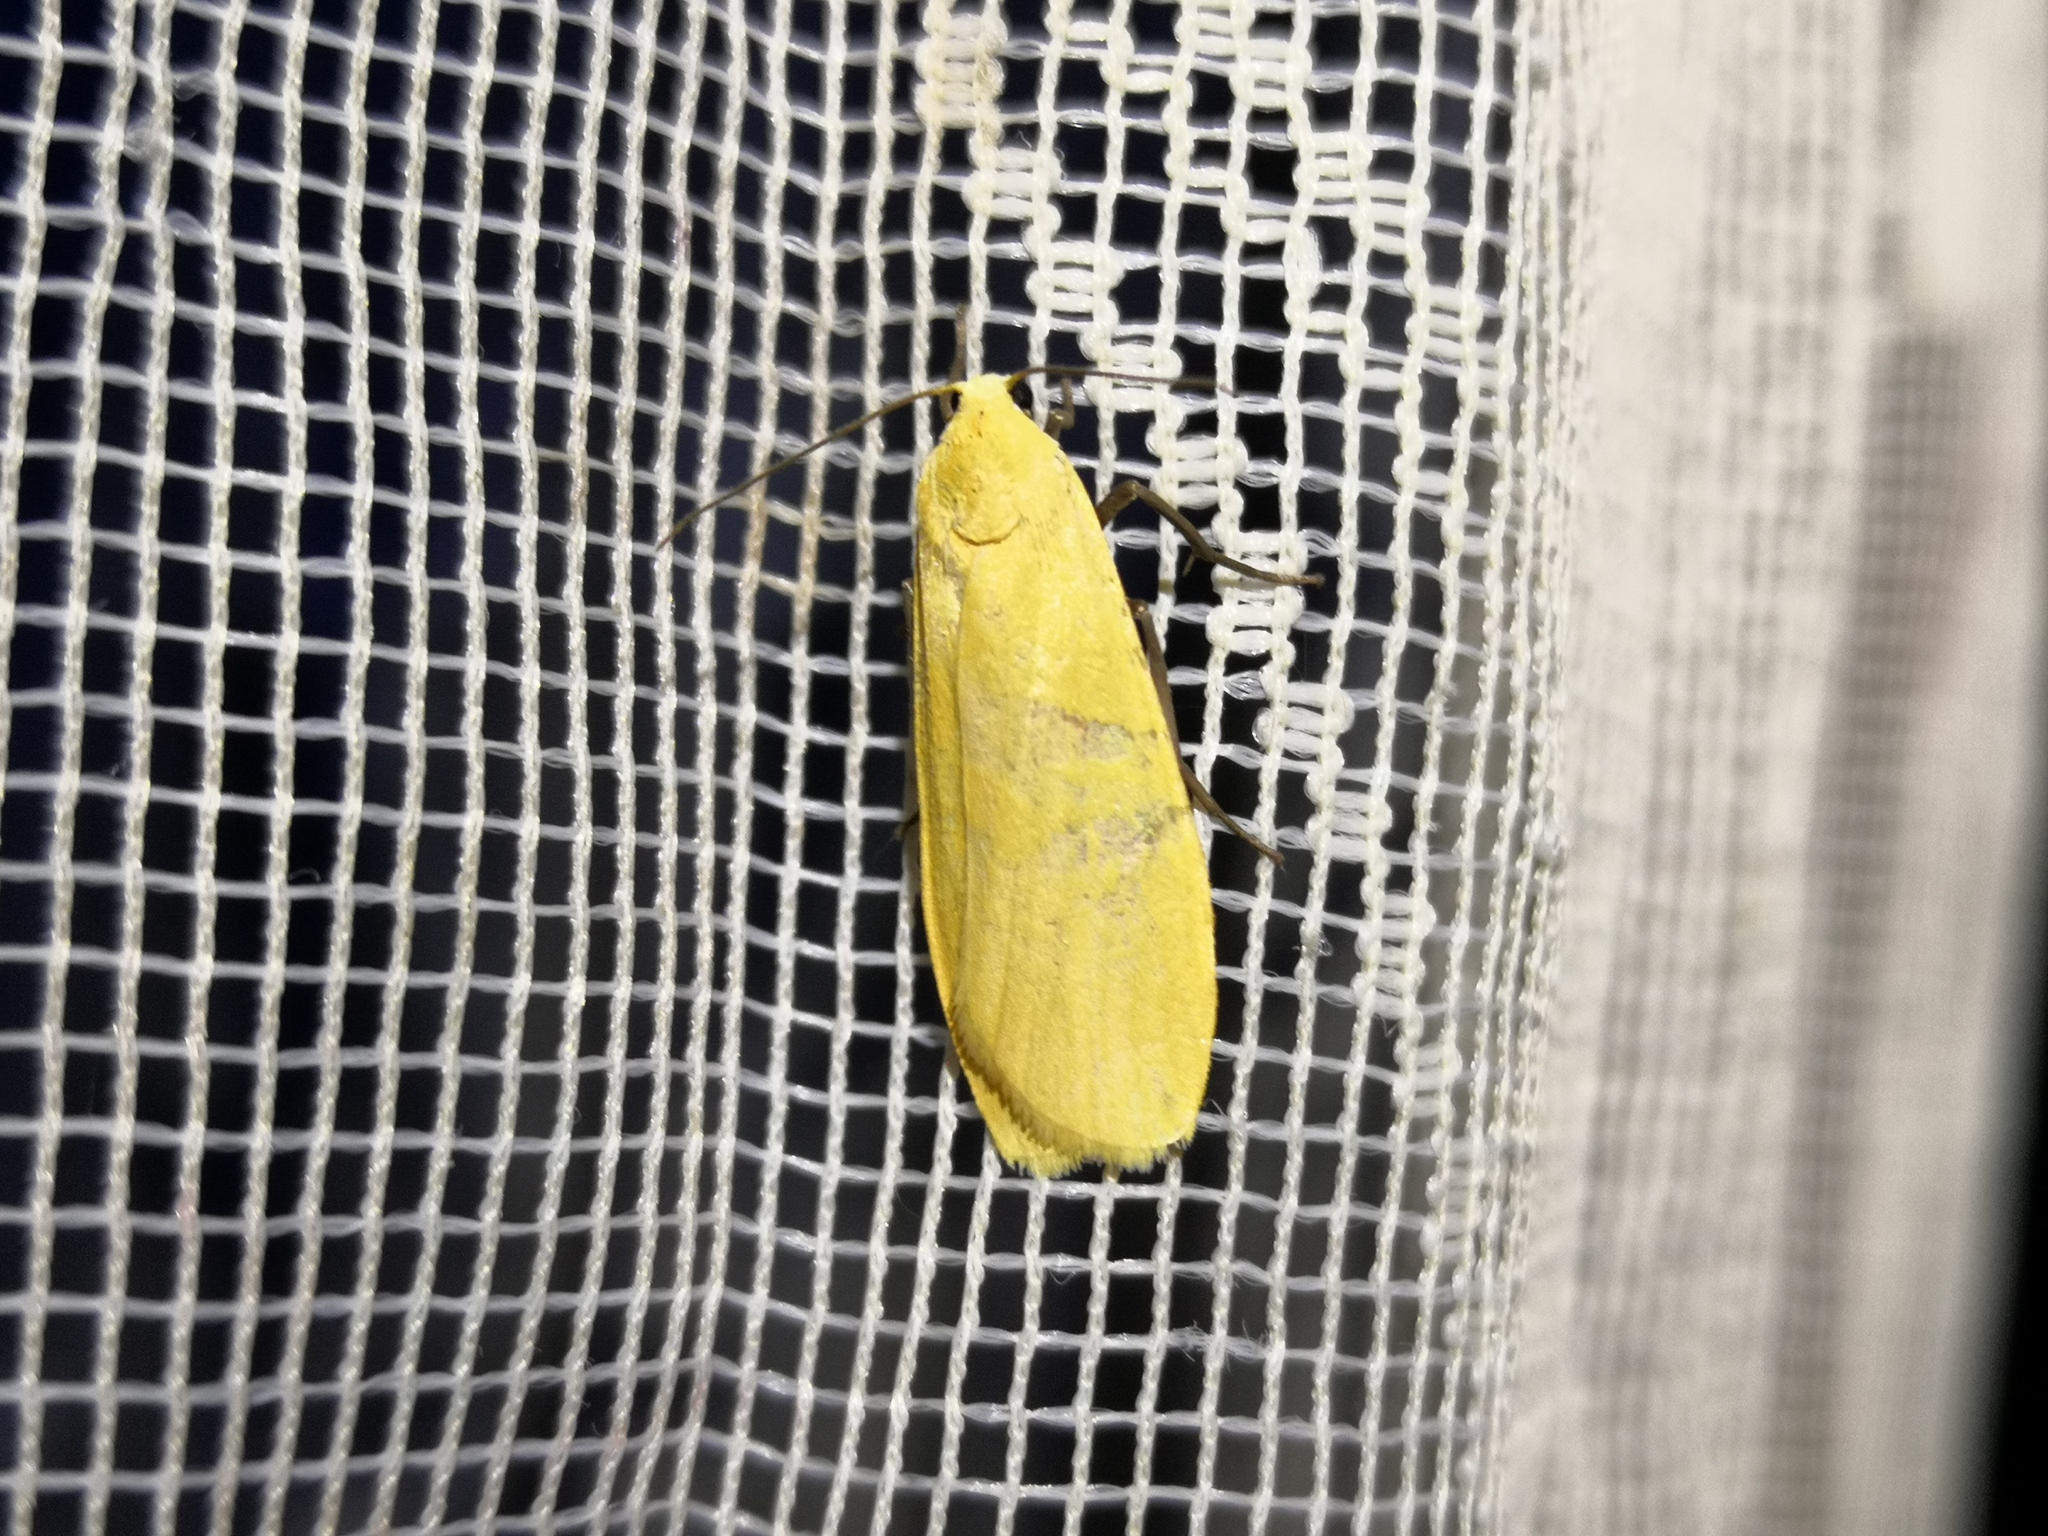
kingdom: Animalia
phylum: Arthropoda
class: Insecta
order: Lepidoptera
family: Erebidae
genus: Wittia
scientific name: Wittia sororcula
